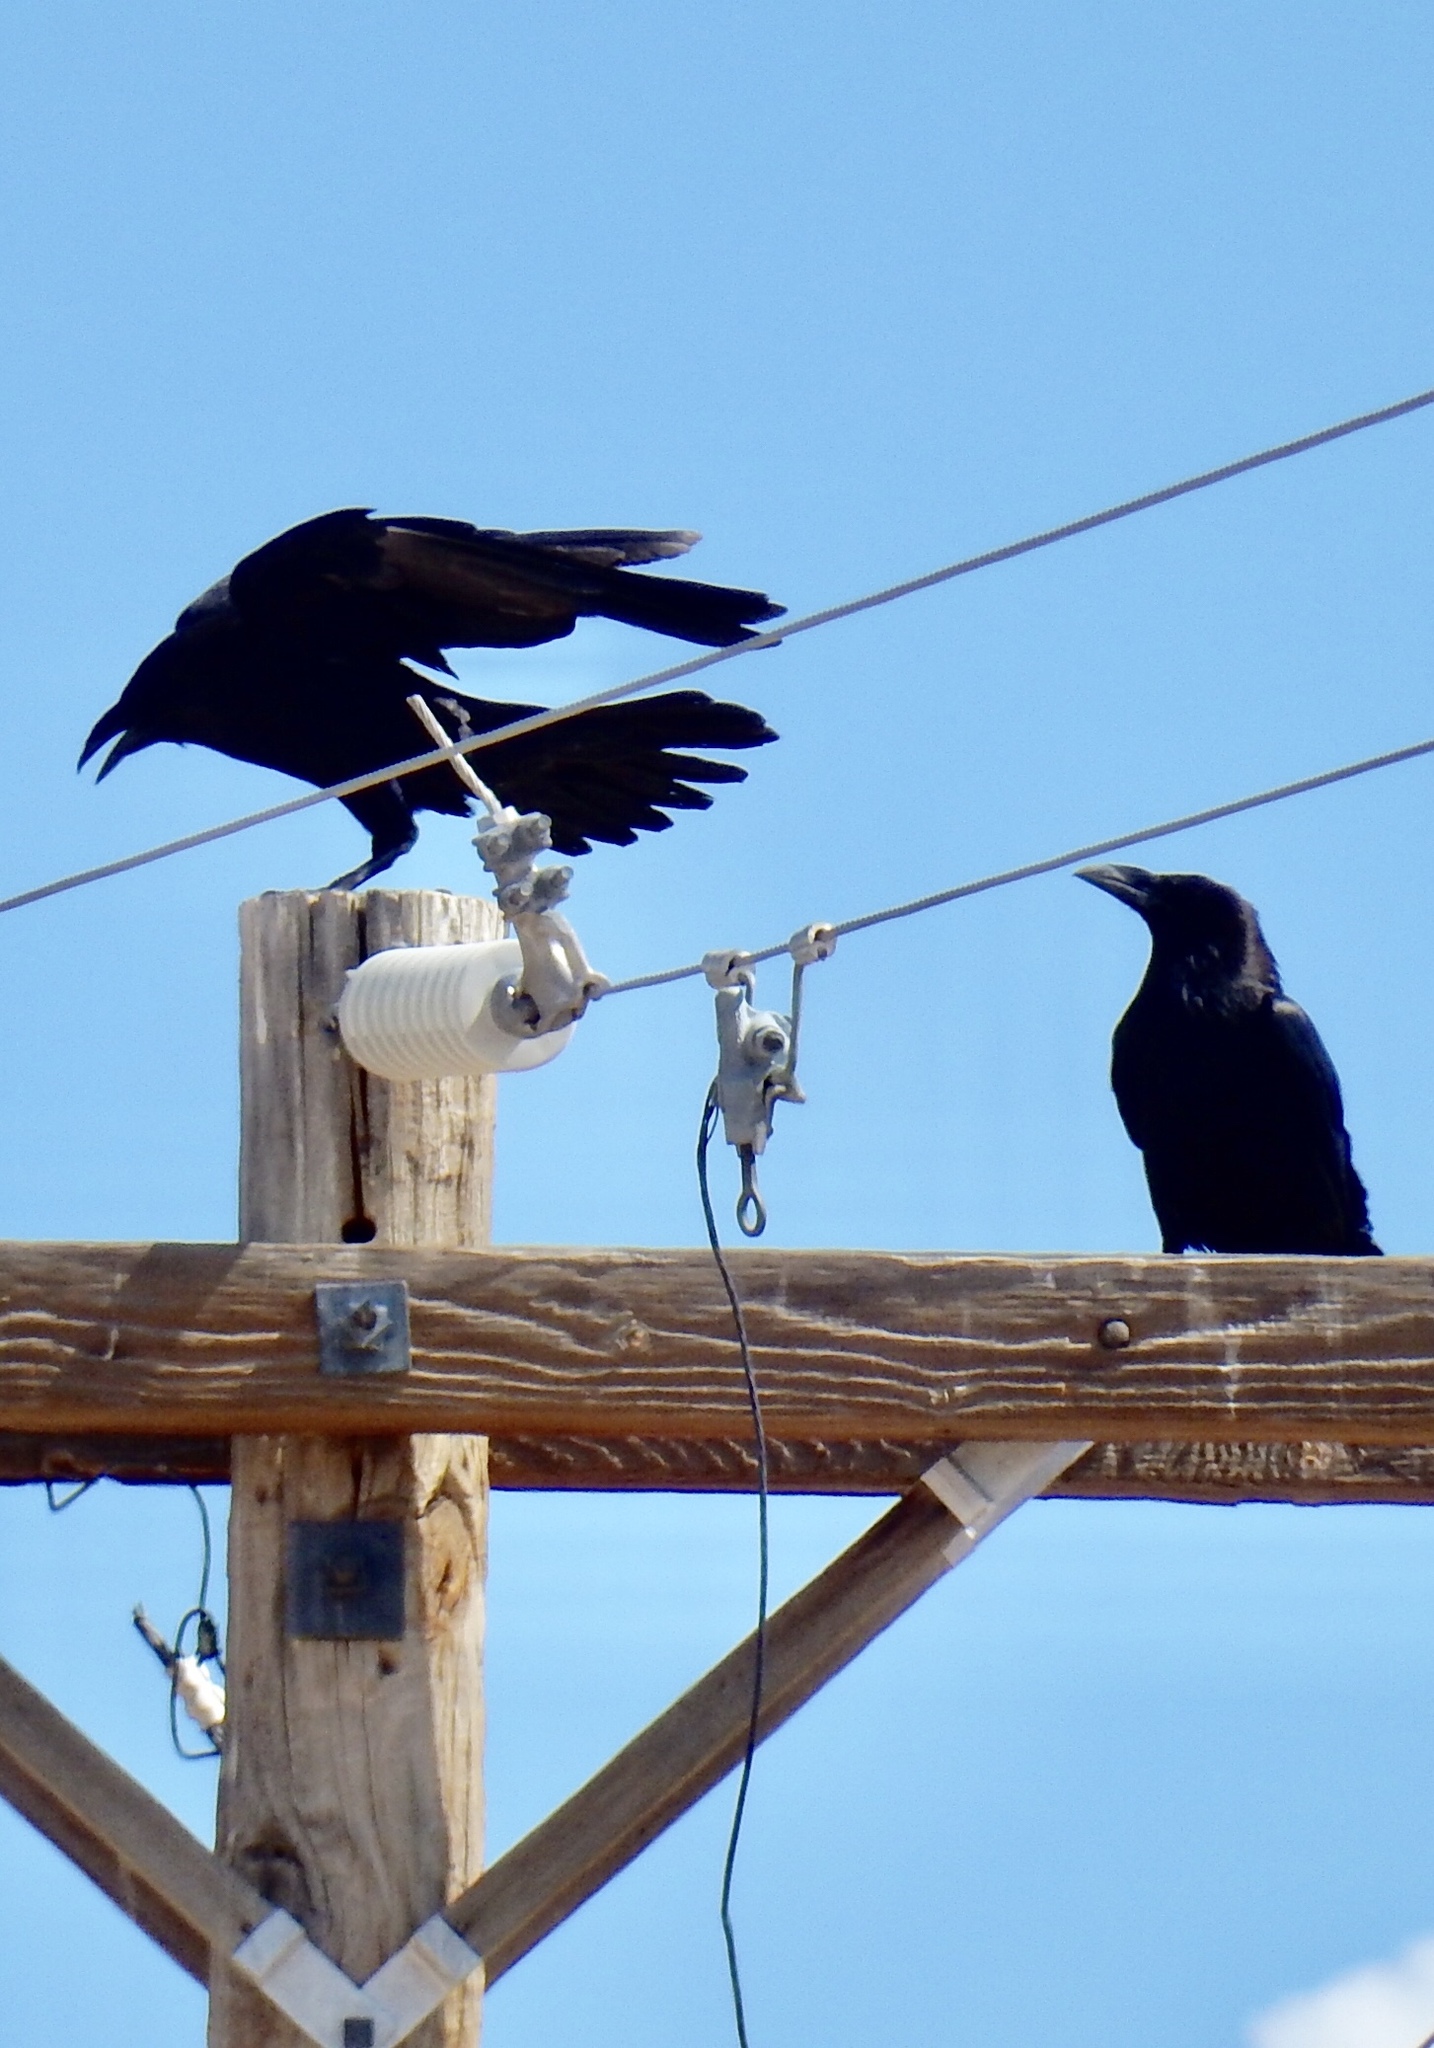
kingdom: Animalia
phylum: Chordata
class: Aves
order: Passeriformes
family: Corvidae
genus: Corvus
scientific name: Corvus cryptoleucus
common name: Chihuahuan raven
